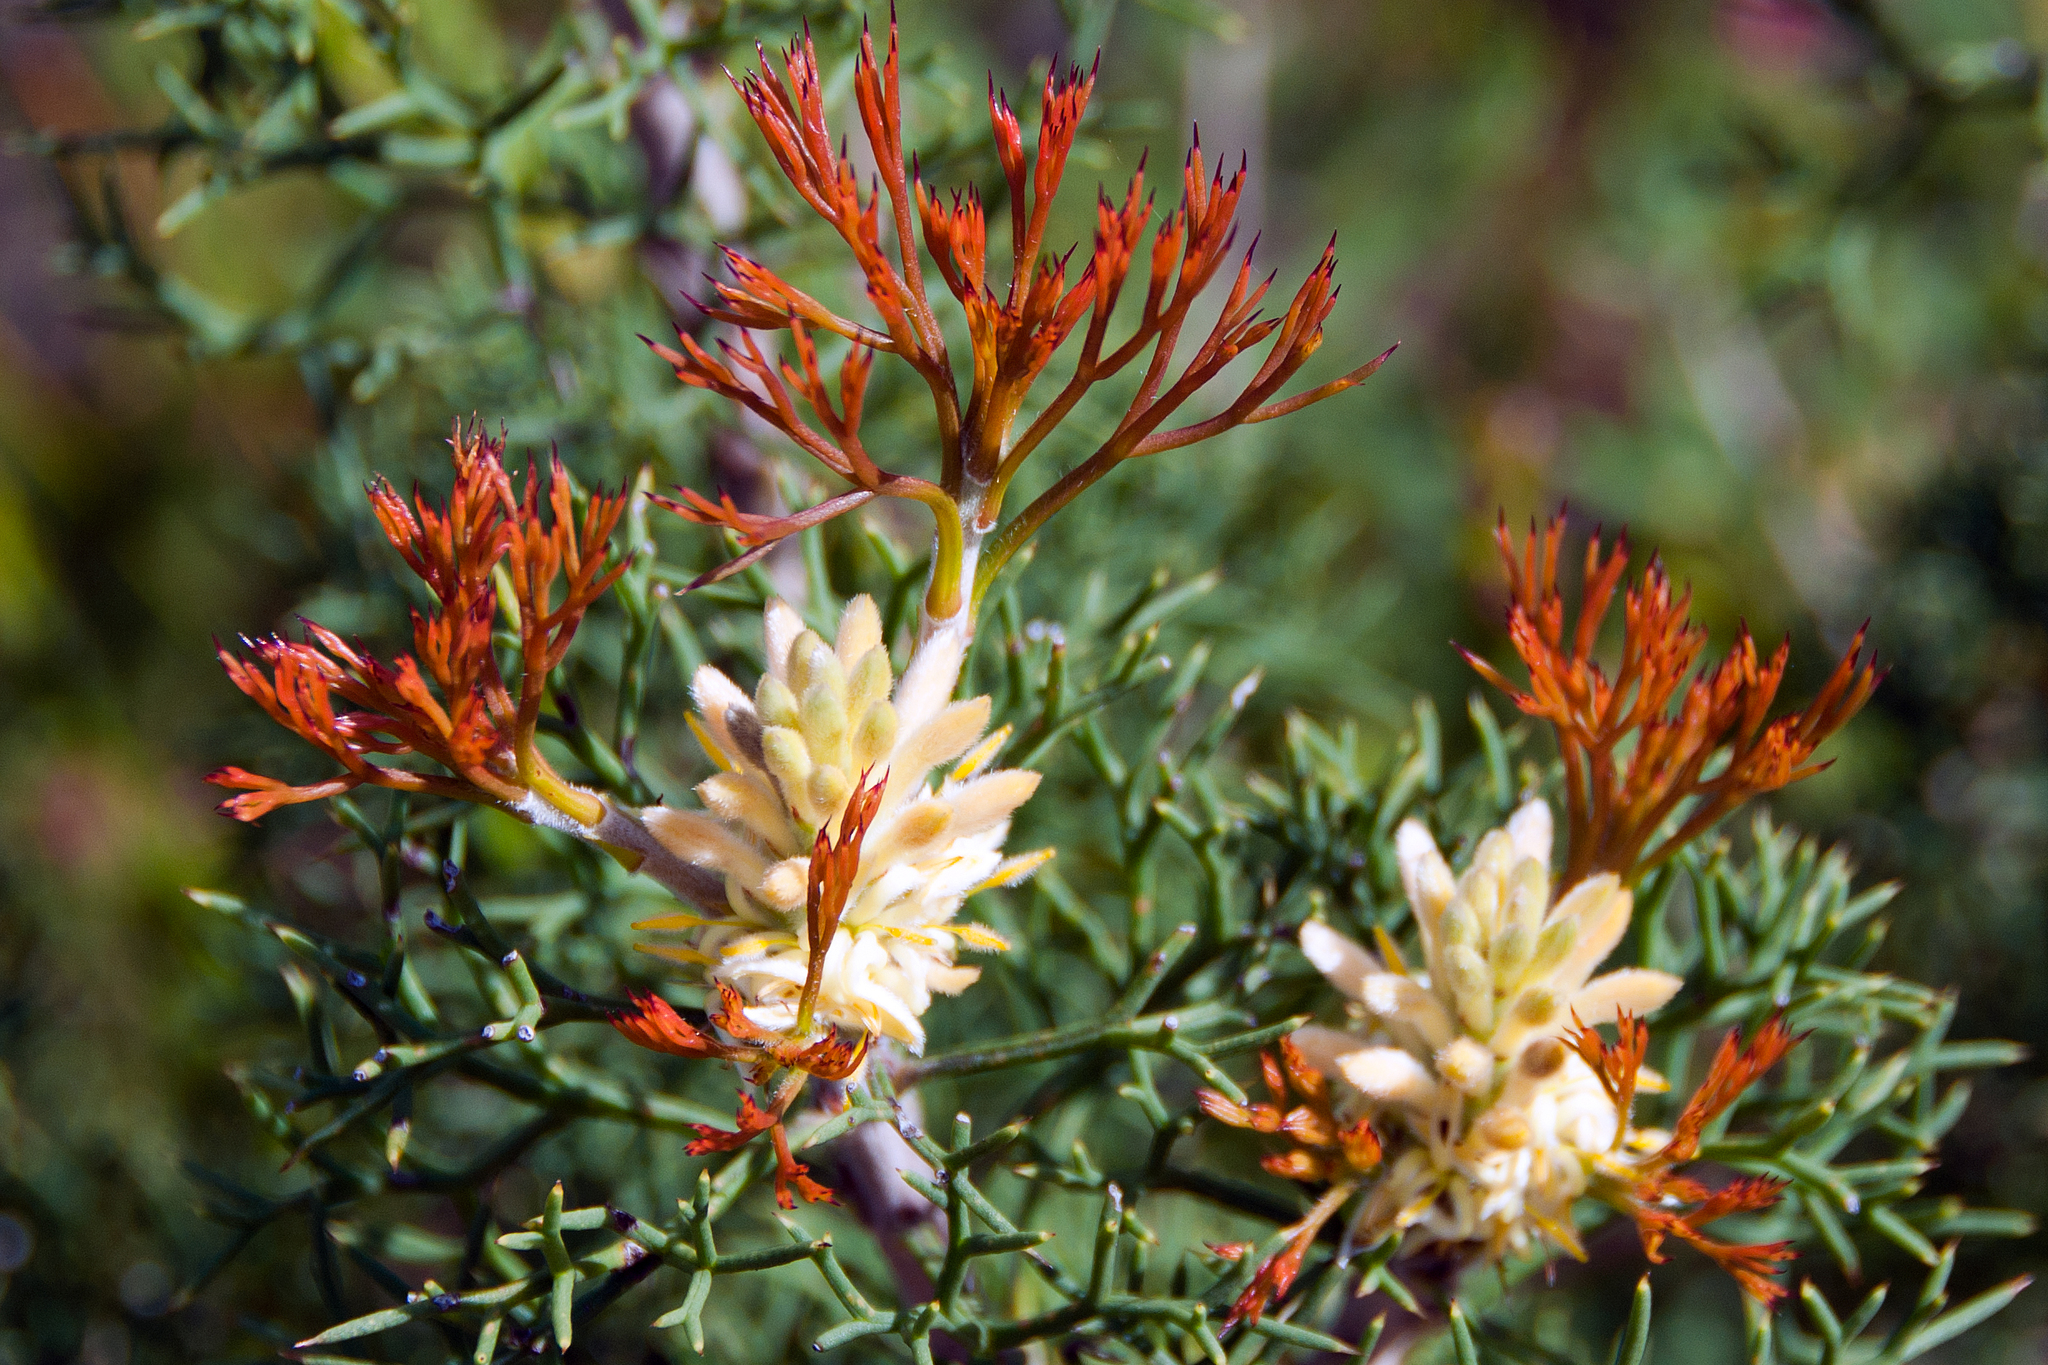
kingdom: Plantae
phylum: Tracheophyta
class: Magnoliopsida
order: Proteales
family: Proteaceae
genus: Petrophile
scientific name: Petrophile multisecta
